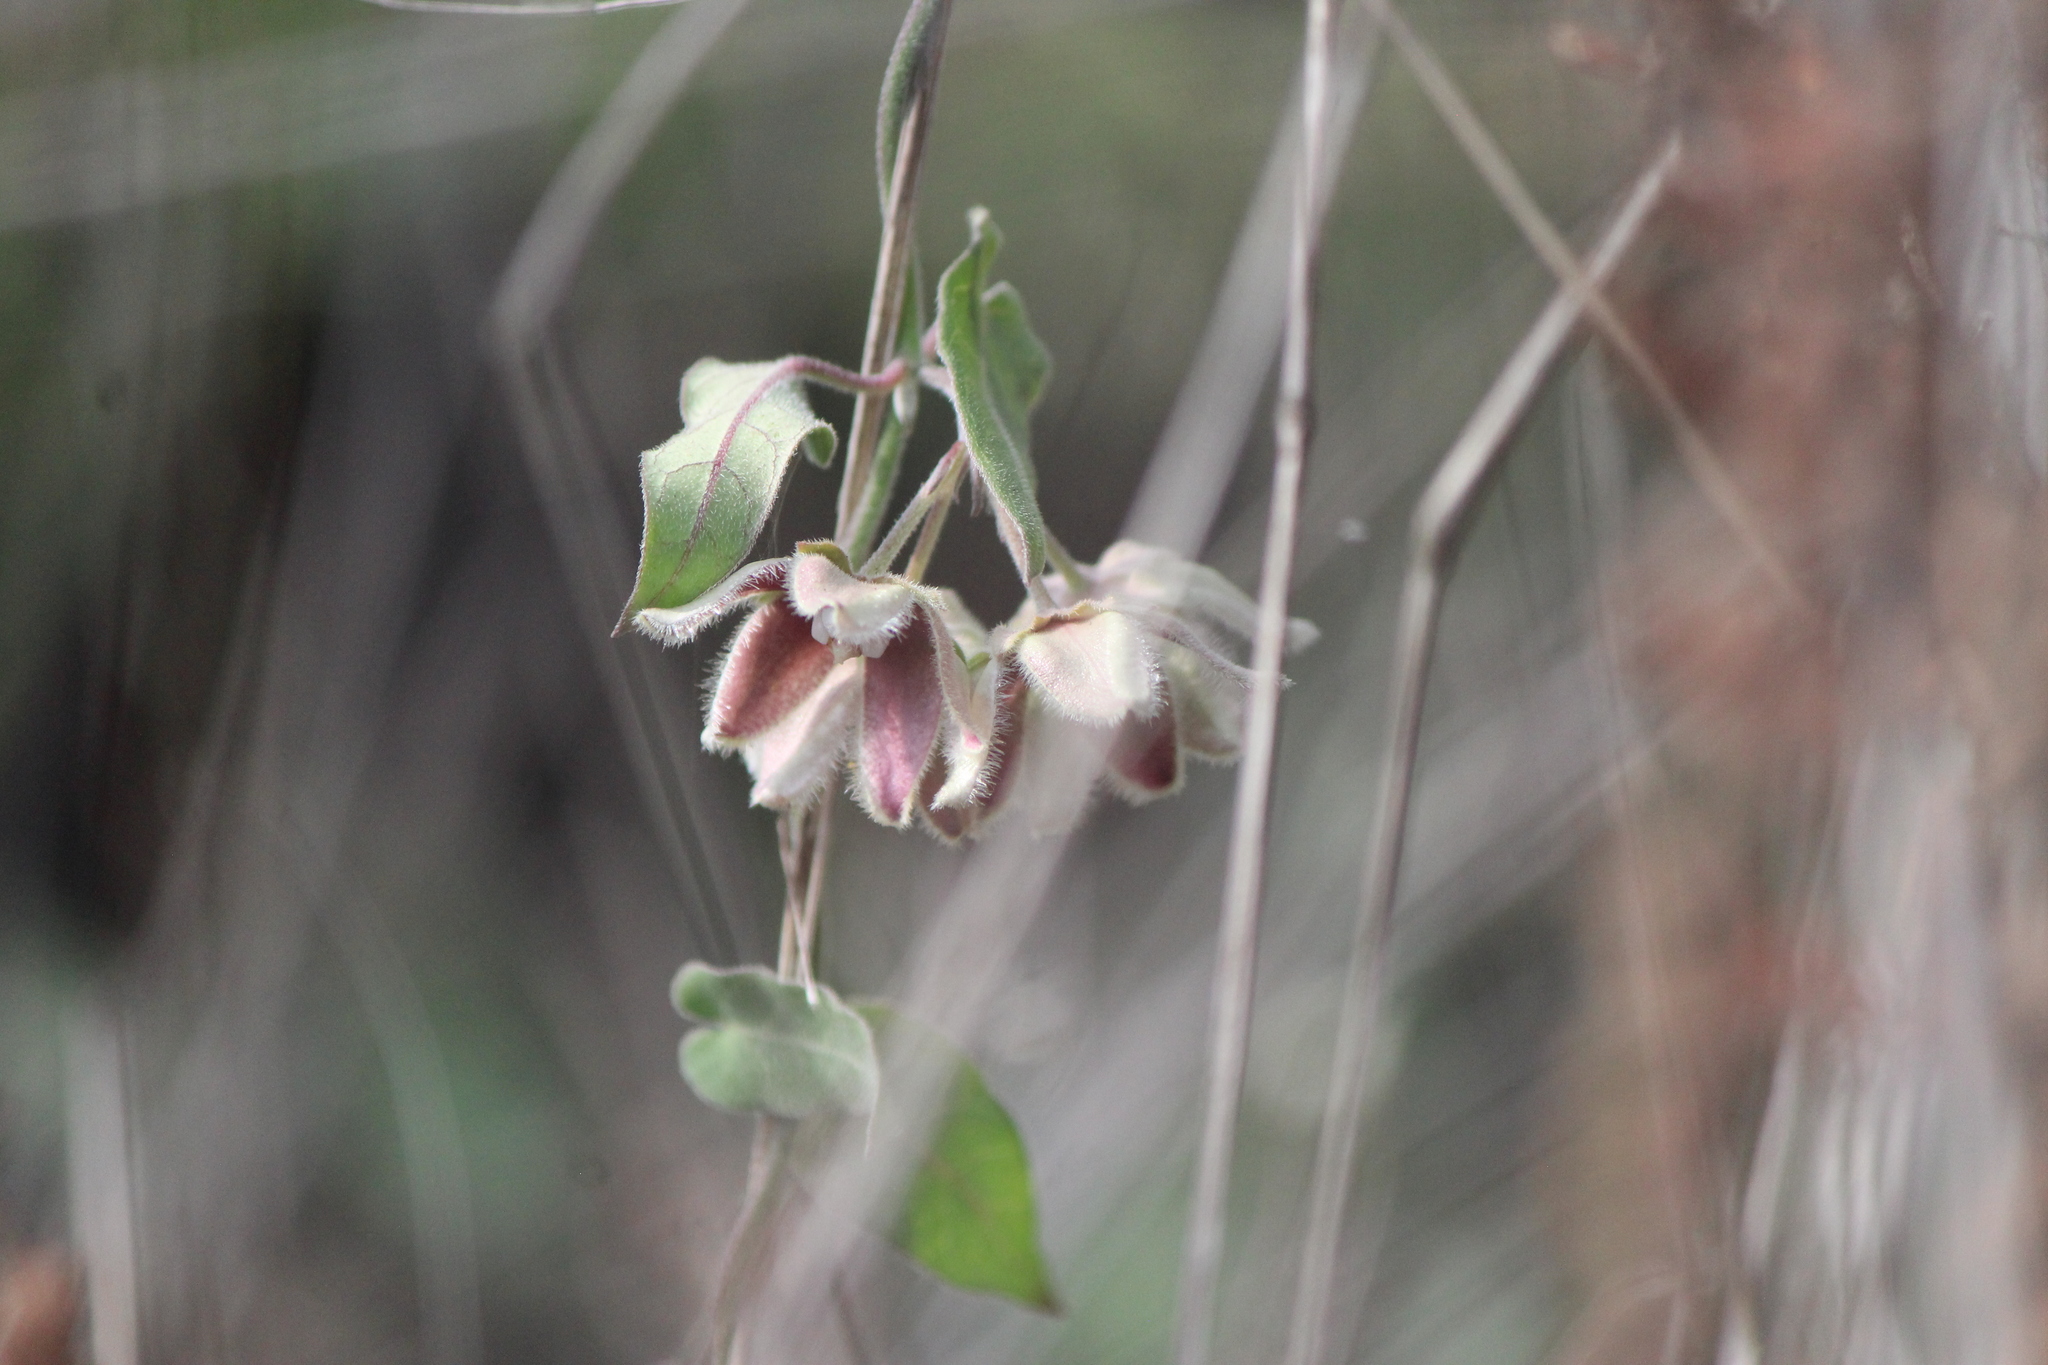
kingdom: Plantae
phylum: Tracheophyta
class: Magnoliopsida
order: Gentianales
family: Apocynaceae
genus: Funastrum
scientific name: Funastrum elegans
